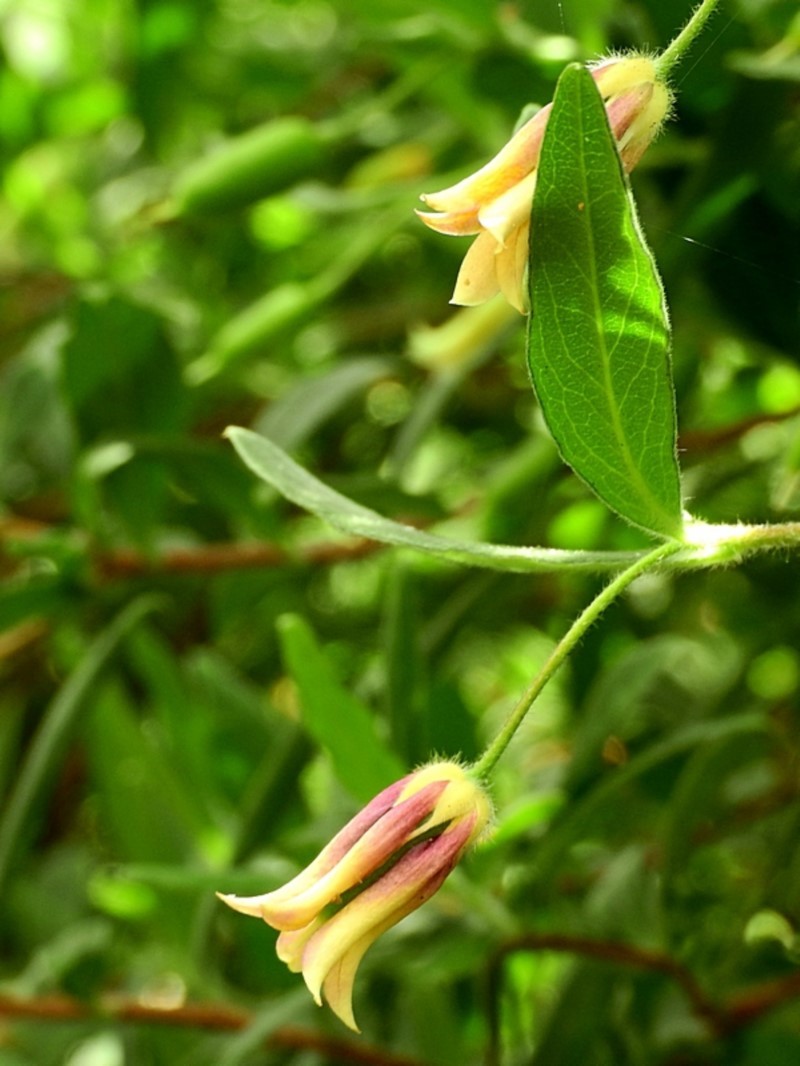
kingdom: Plantae
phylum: Tracheophyta
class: Magnoliopsida
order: Apiales
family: Pittosporaceae
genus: Billardiera
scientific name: Billardiera mutabilis
